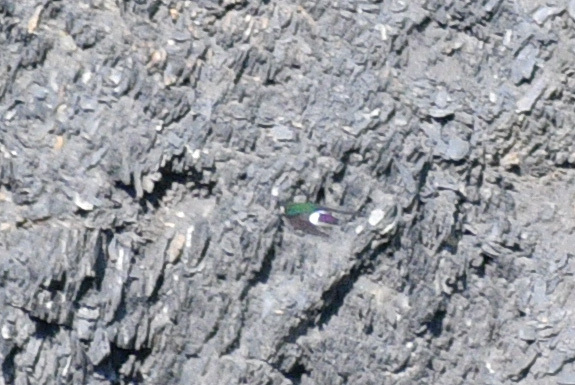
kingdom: Animalia
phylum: Chordata
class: Aves
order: Passeriformes
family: Hirundinidae
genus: Tachycineta
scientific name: Tachycineta thalassina
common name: Violet-green swallow
